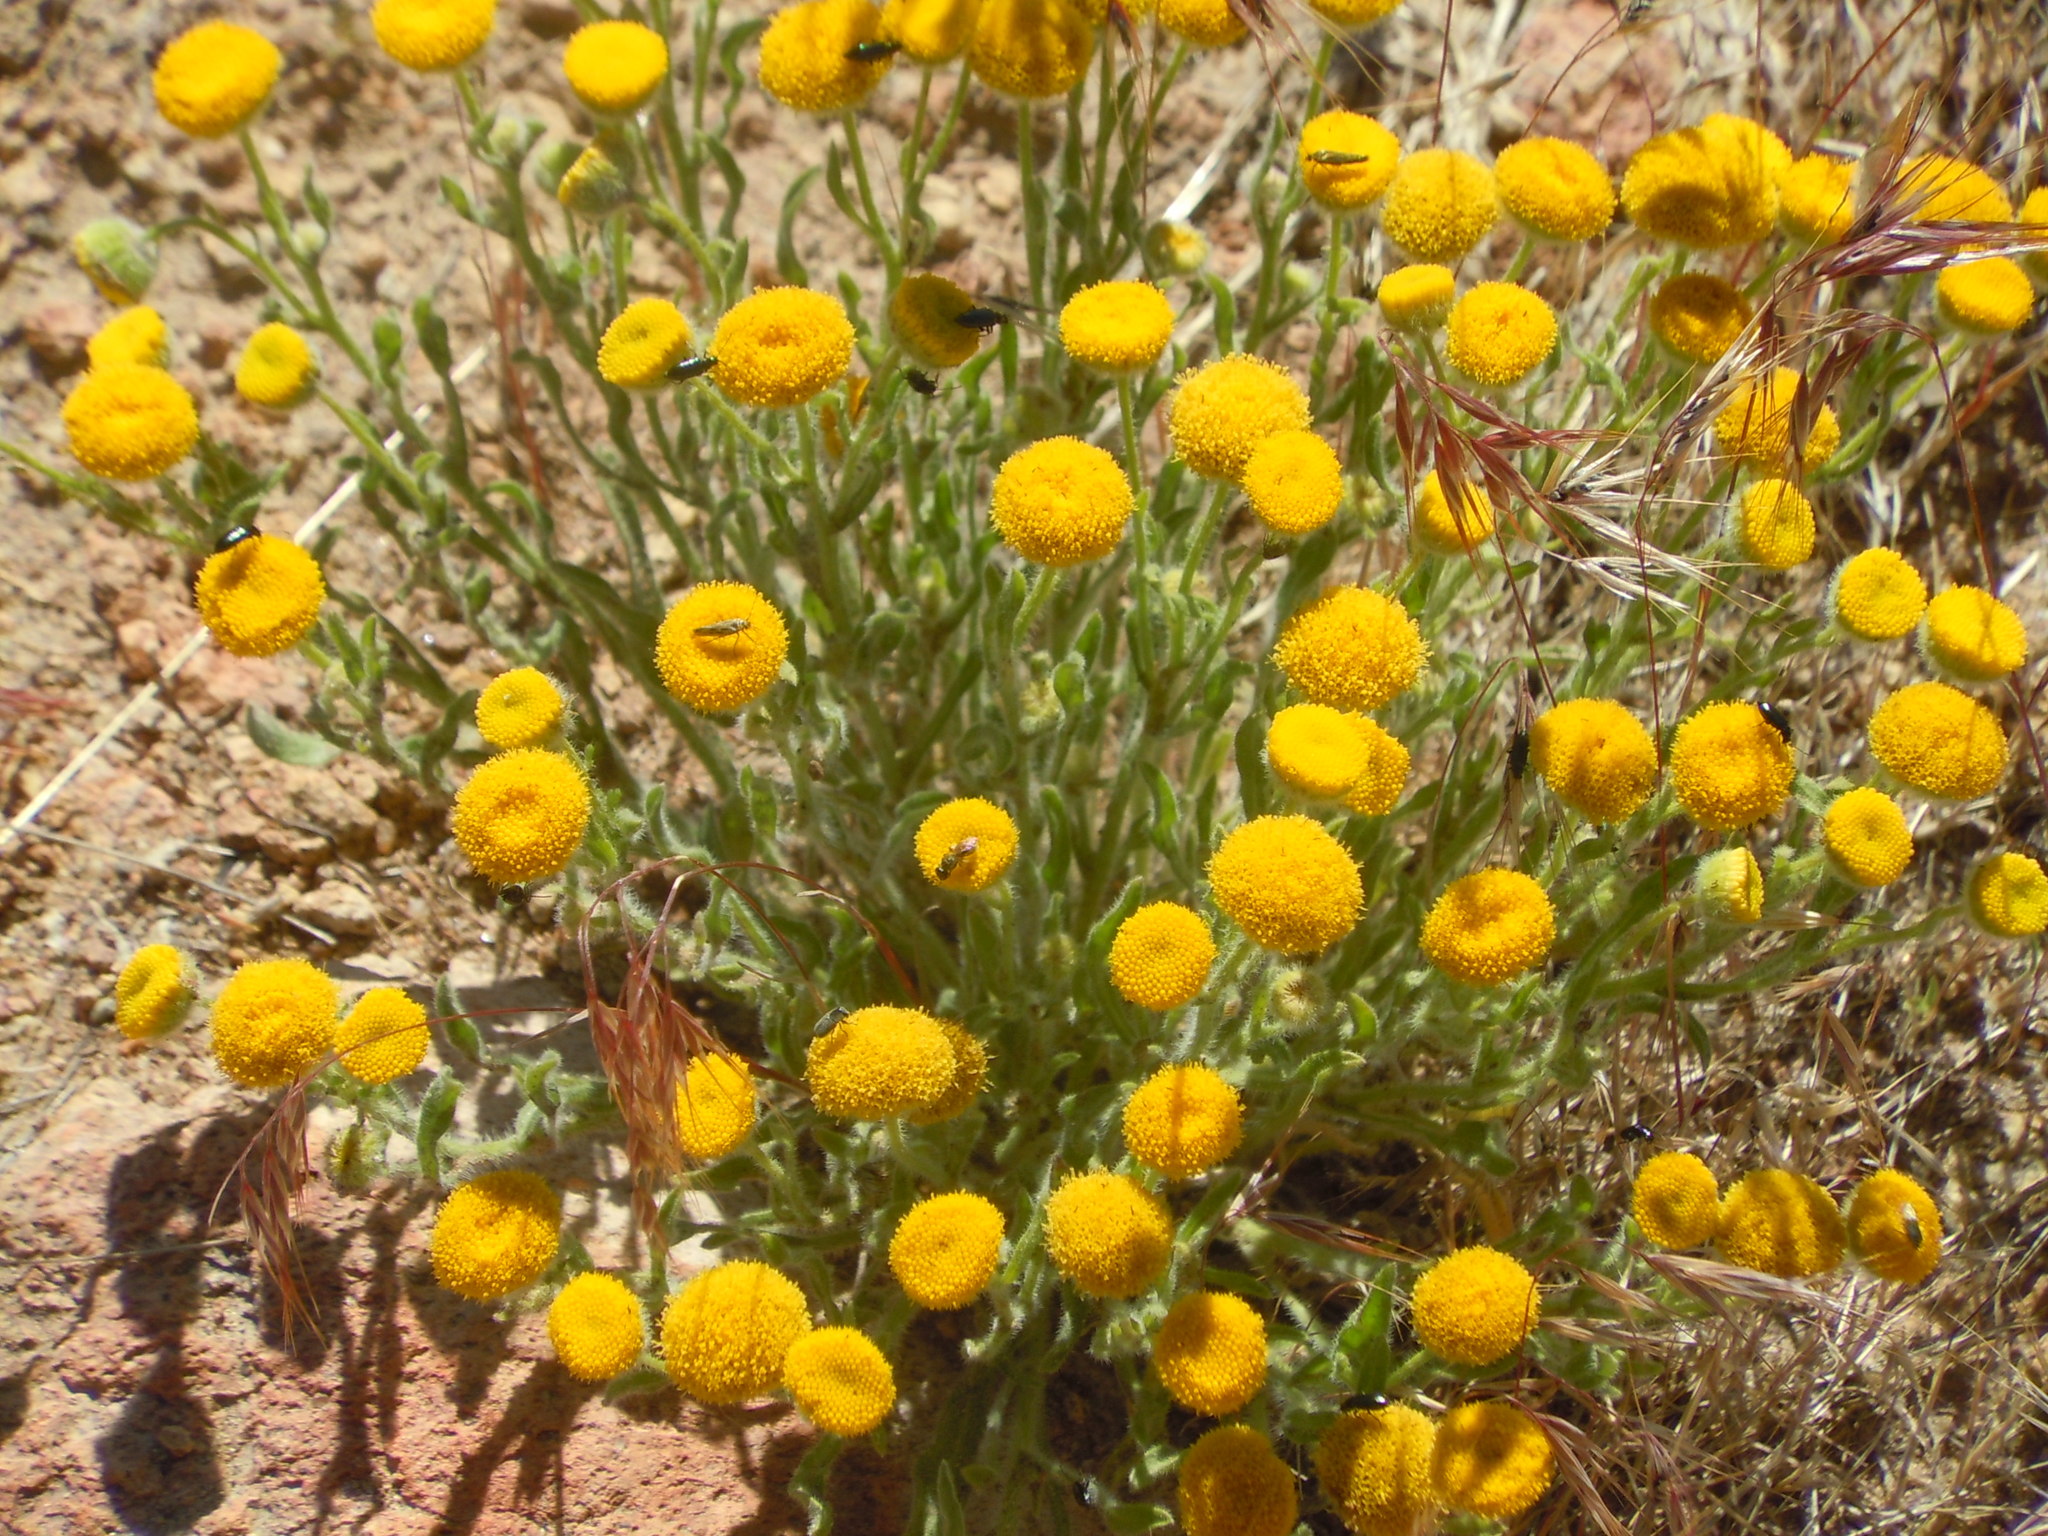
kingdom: Plantae
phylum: Tracheophyta
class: Magnoliopsida
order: Asterales
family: Asteraceae
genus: Erigeron
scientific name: Erigeron aphanactis
